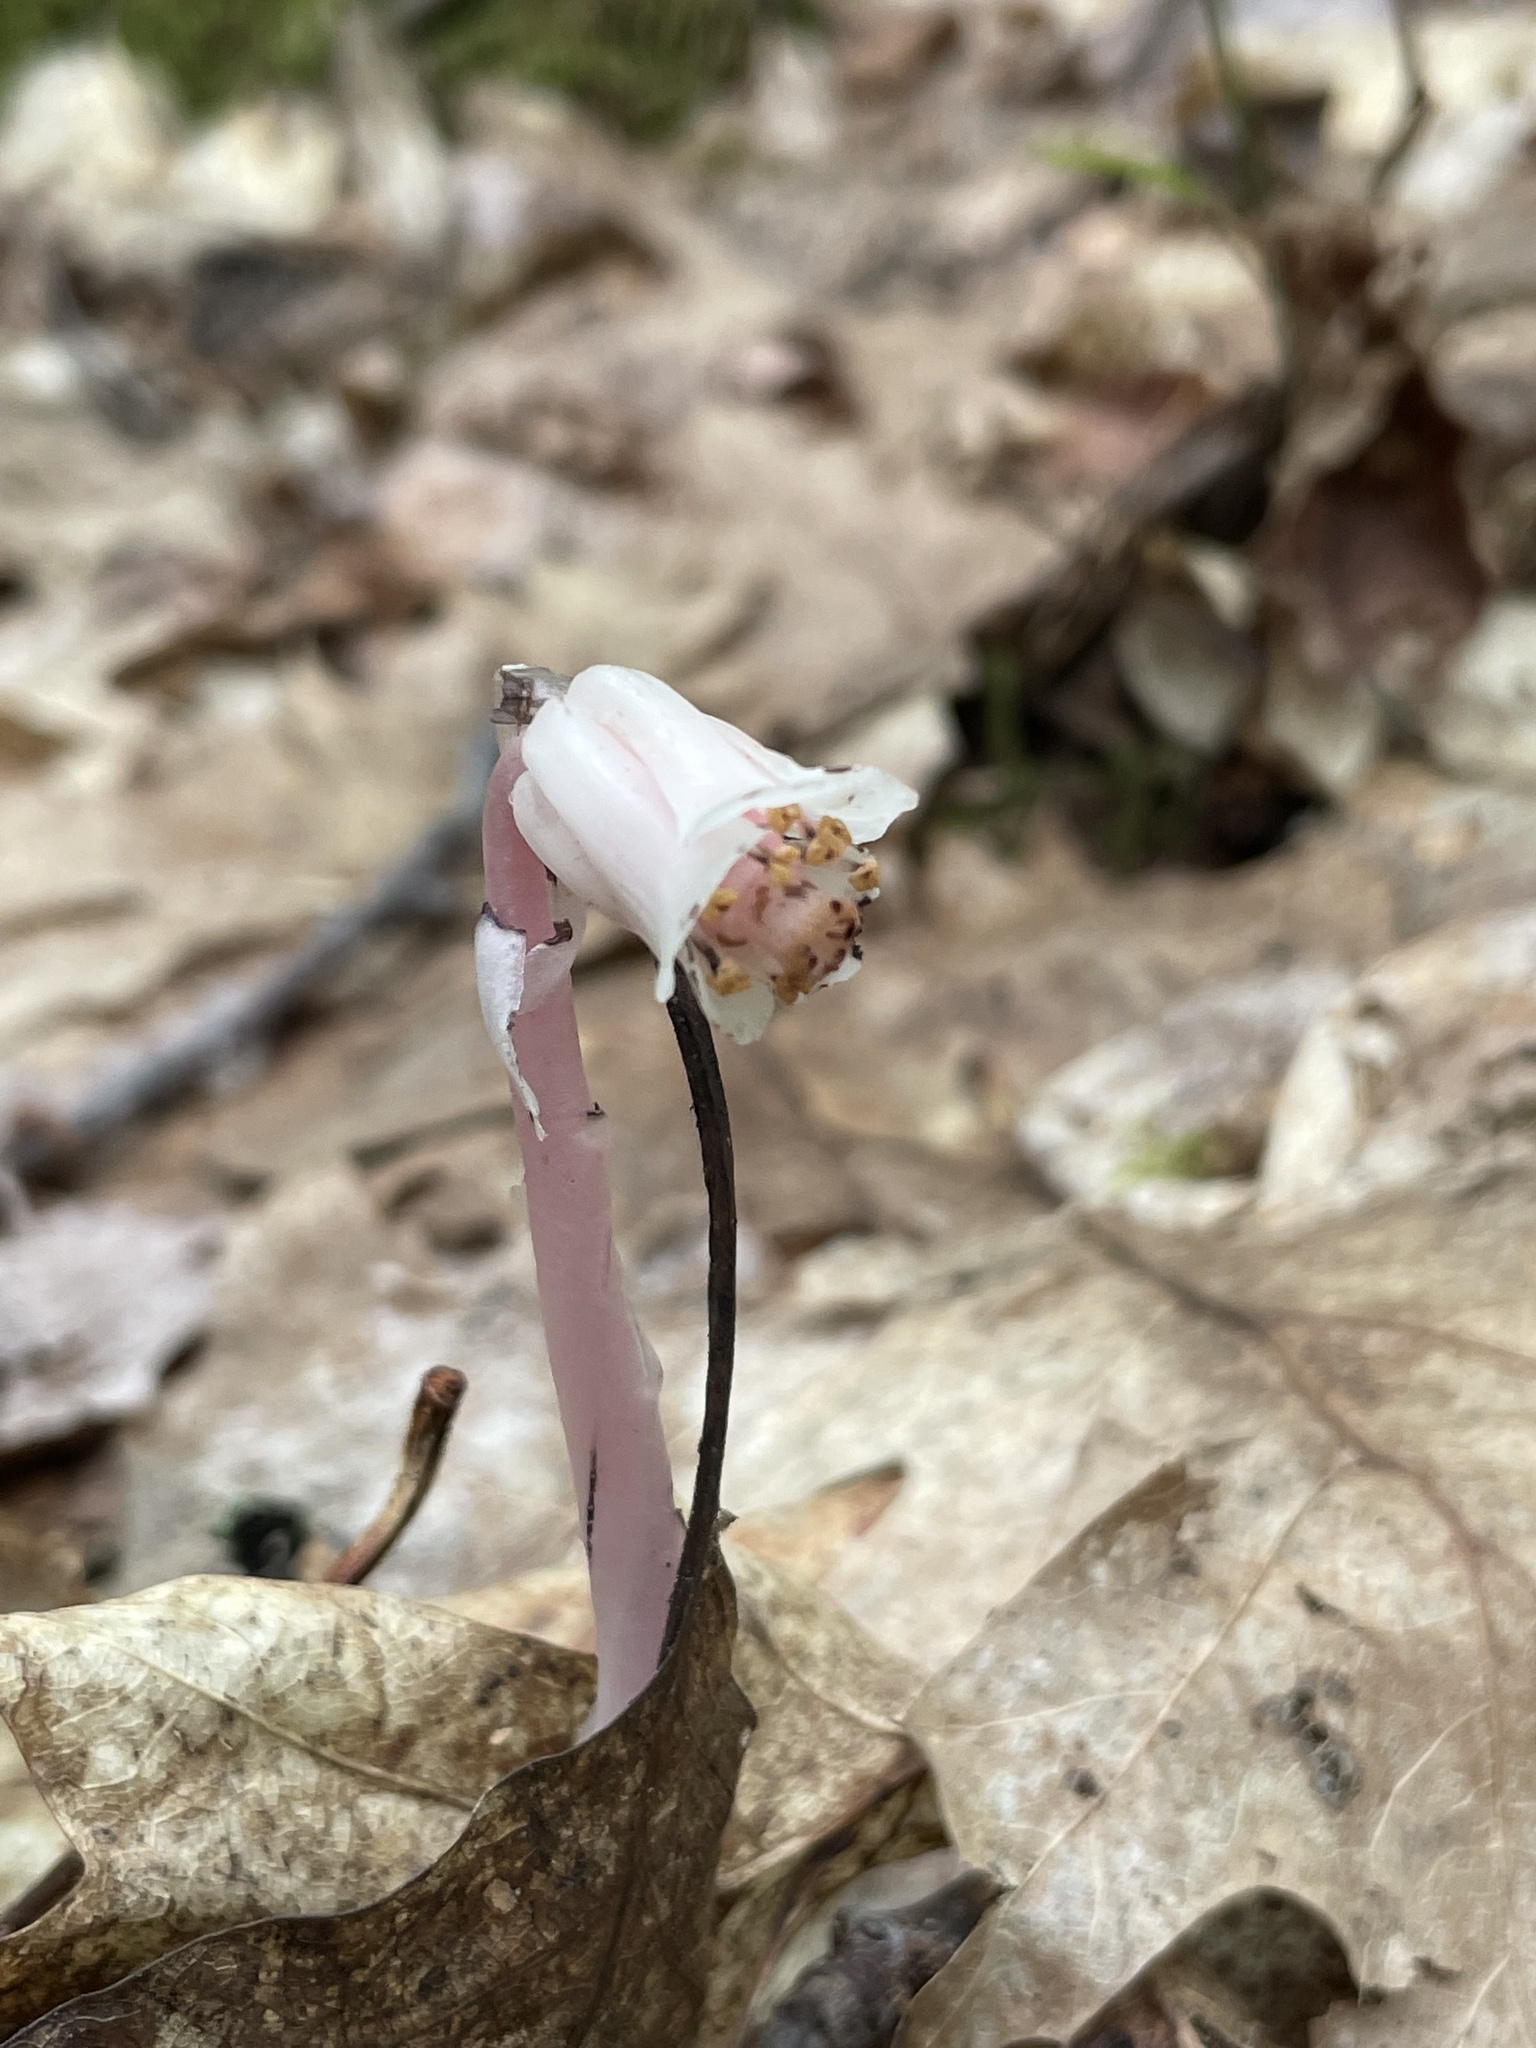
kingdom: Plantae
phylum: Tracheophyta
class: Magnoliopsida
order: Ericales
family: Ericaceae
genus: Monotropa
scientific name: Monotropa uniflora
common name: Convulsion root
